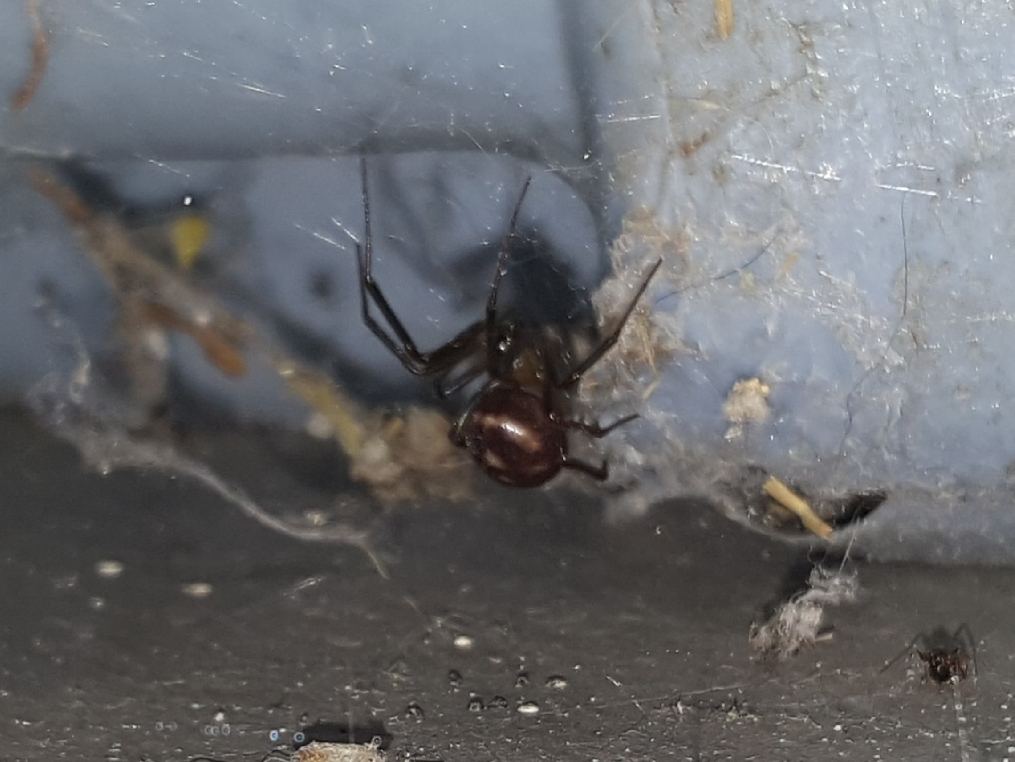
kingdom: Animalia
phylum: Arthropoda
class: Arachnida
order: Araneae
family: Theridiidae
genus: Steatoda
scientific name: Steatoda grossa
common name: False black widow
